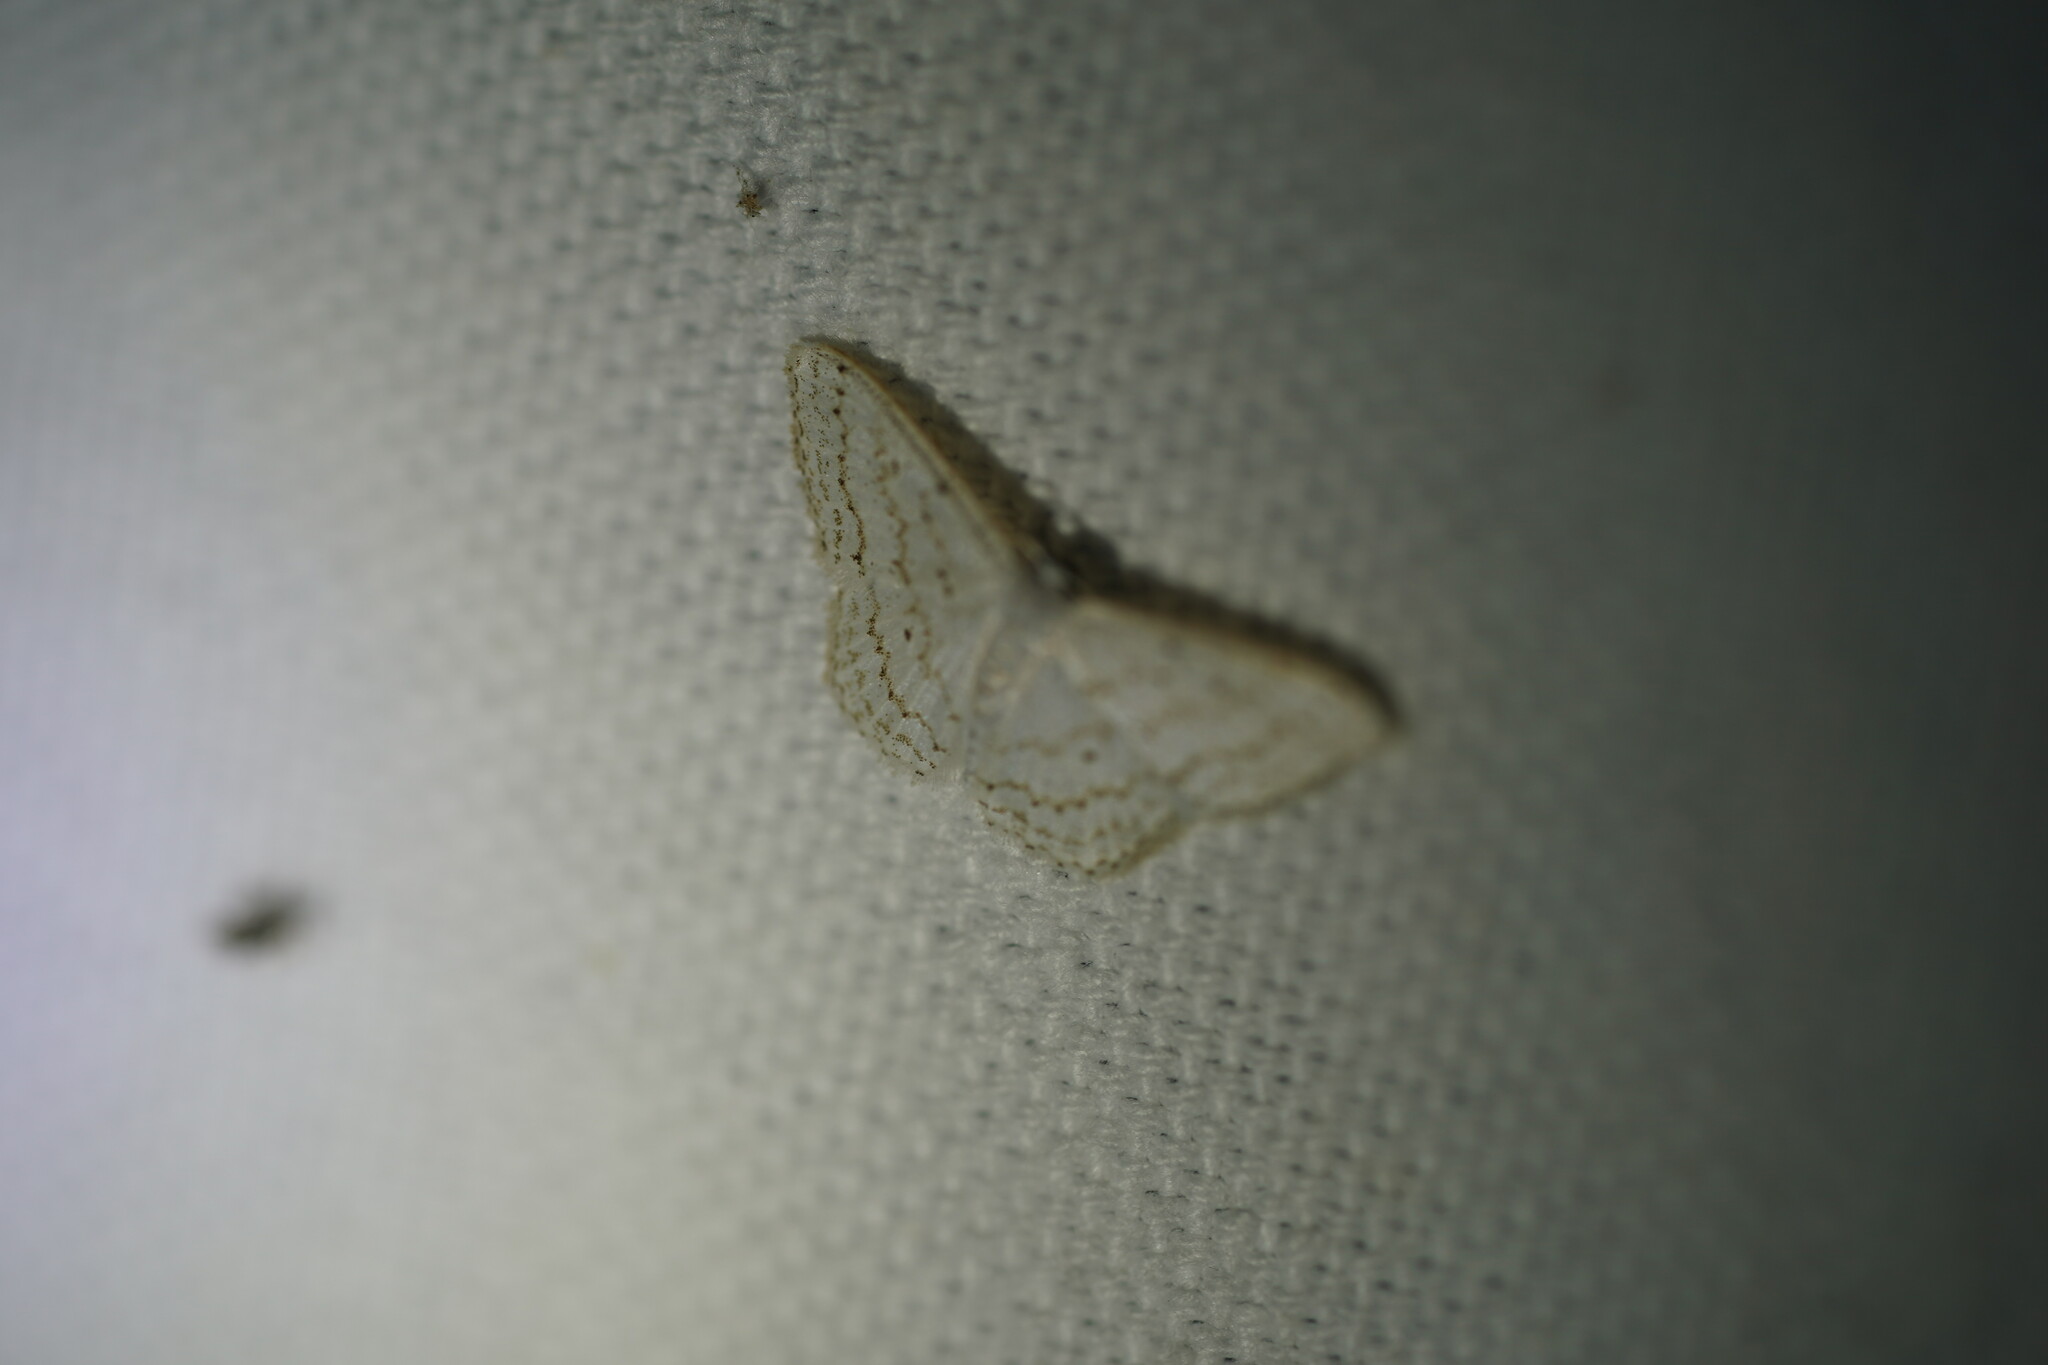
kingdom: Animalia
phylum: Arthropoda
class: Insecta
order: Lepidoptera
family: Geometridae
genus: Idaea
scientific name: Idaea tacturata
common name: Dot-lined wave
